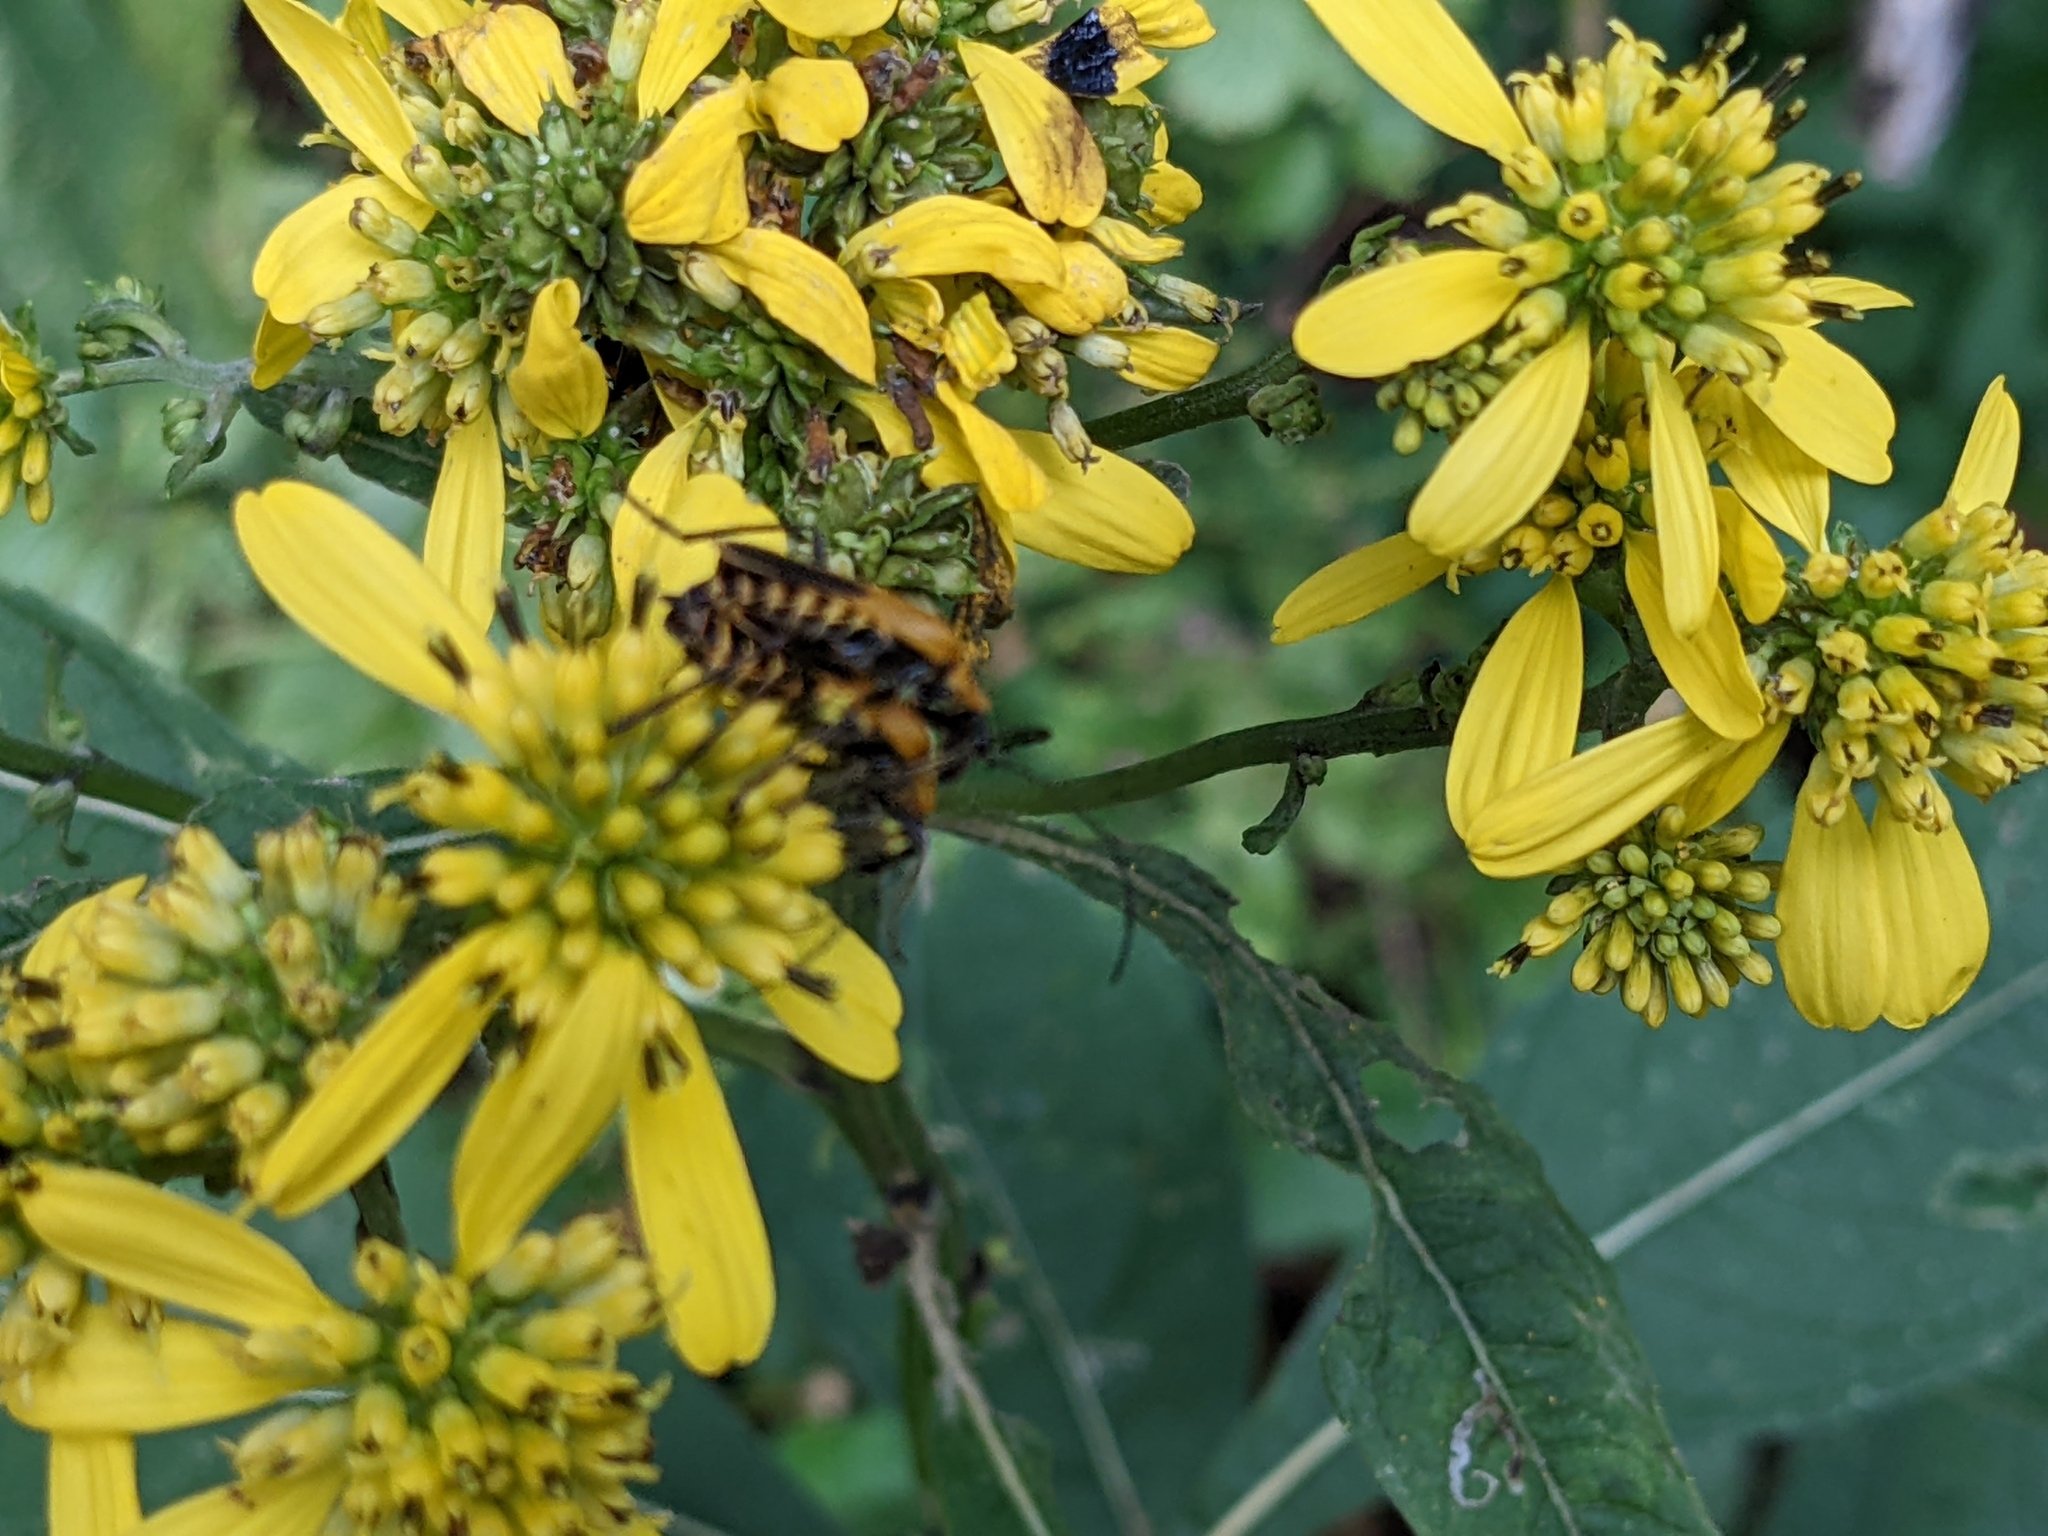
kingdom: Animalia
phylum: Arthropoda
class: Insecta
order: Coleoptera
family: Cantharidae
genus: Chauliognathus
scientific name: Chauliognathus pensylvanicus
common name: Goldenrod soldier beetle
